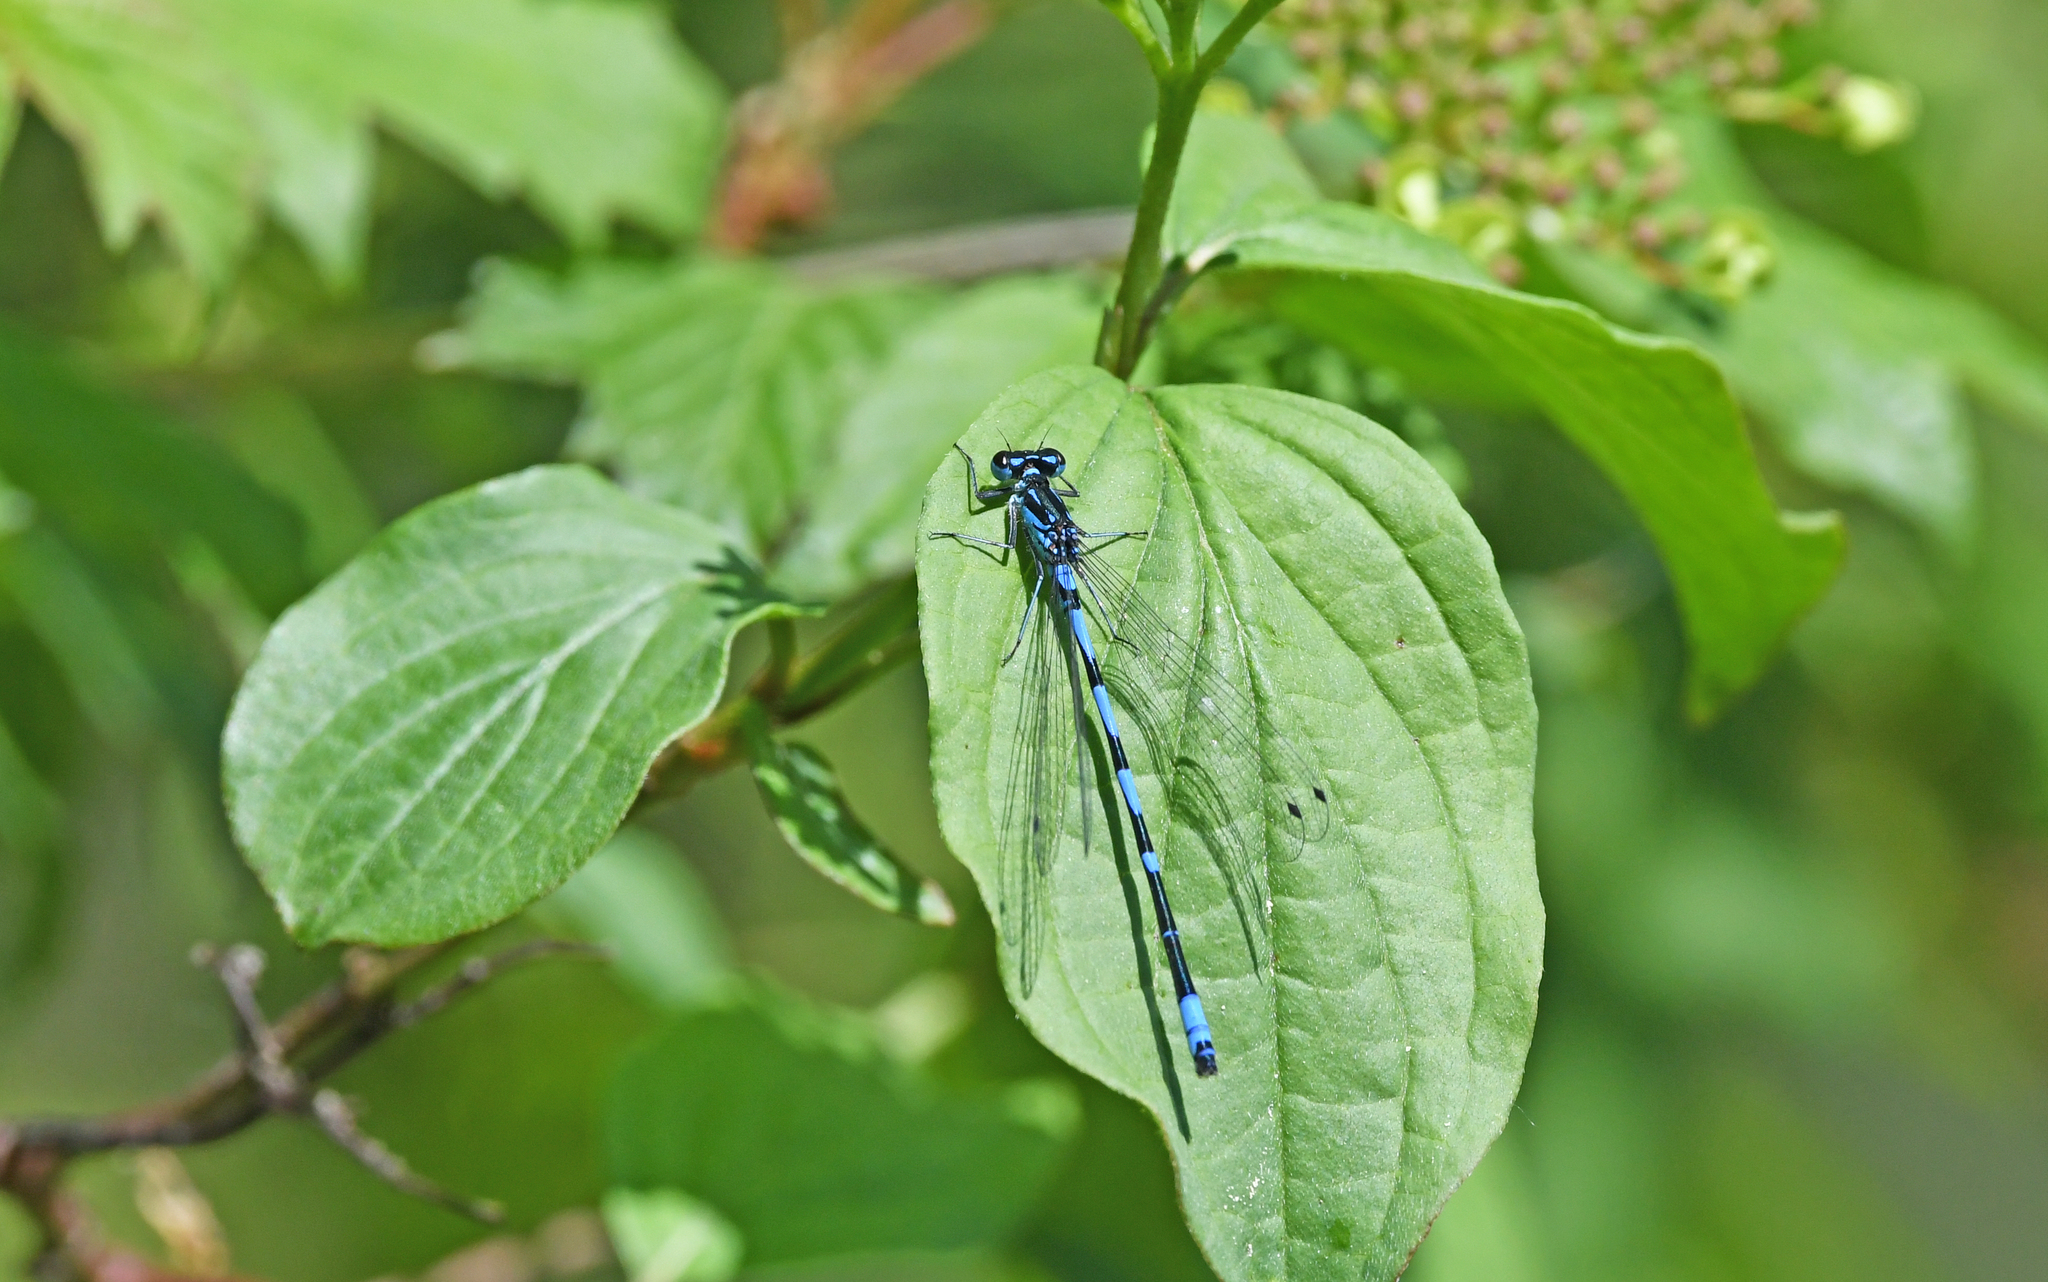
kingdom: Animalia
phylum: Arthropoda
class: Insecta
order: Odonata
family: Coenagrionidae
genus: Coenagrion
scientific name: Coenagrion pulchellum
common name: Variable bluet
